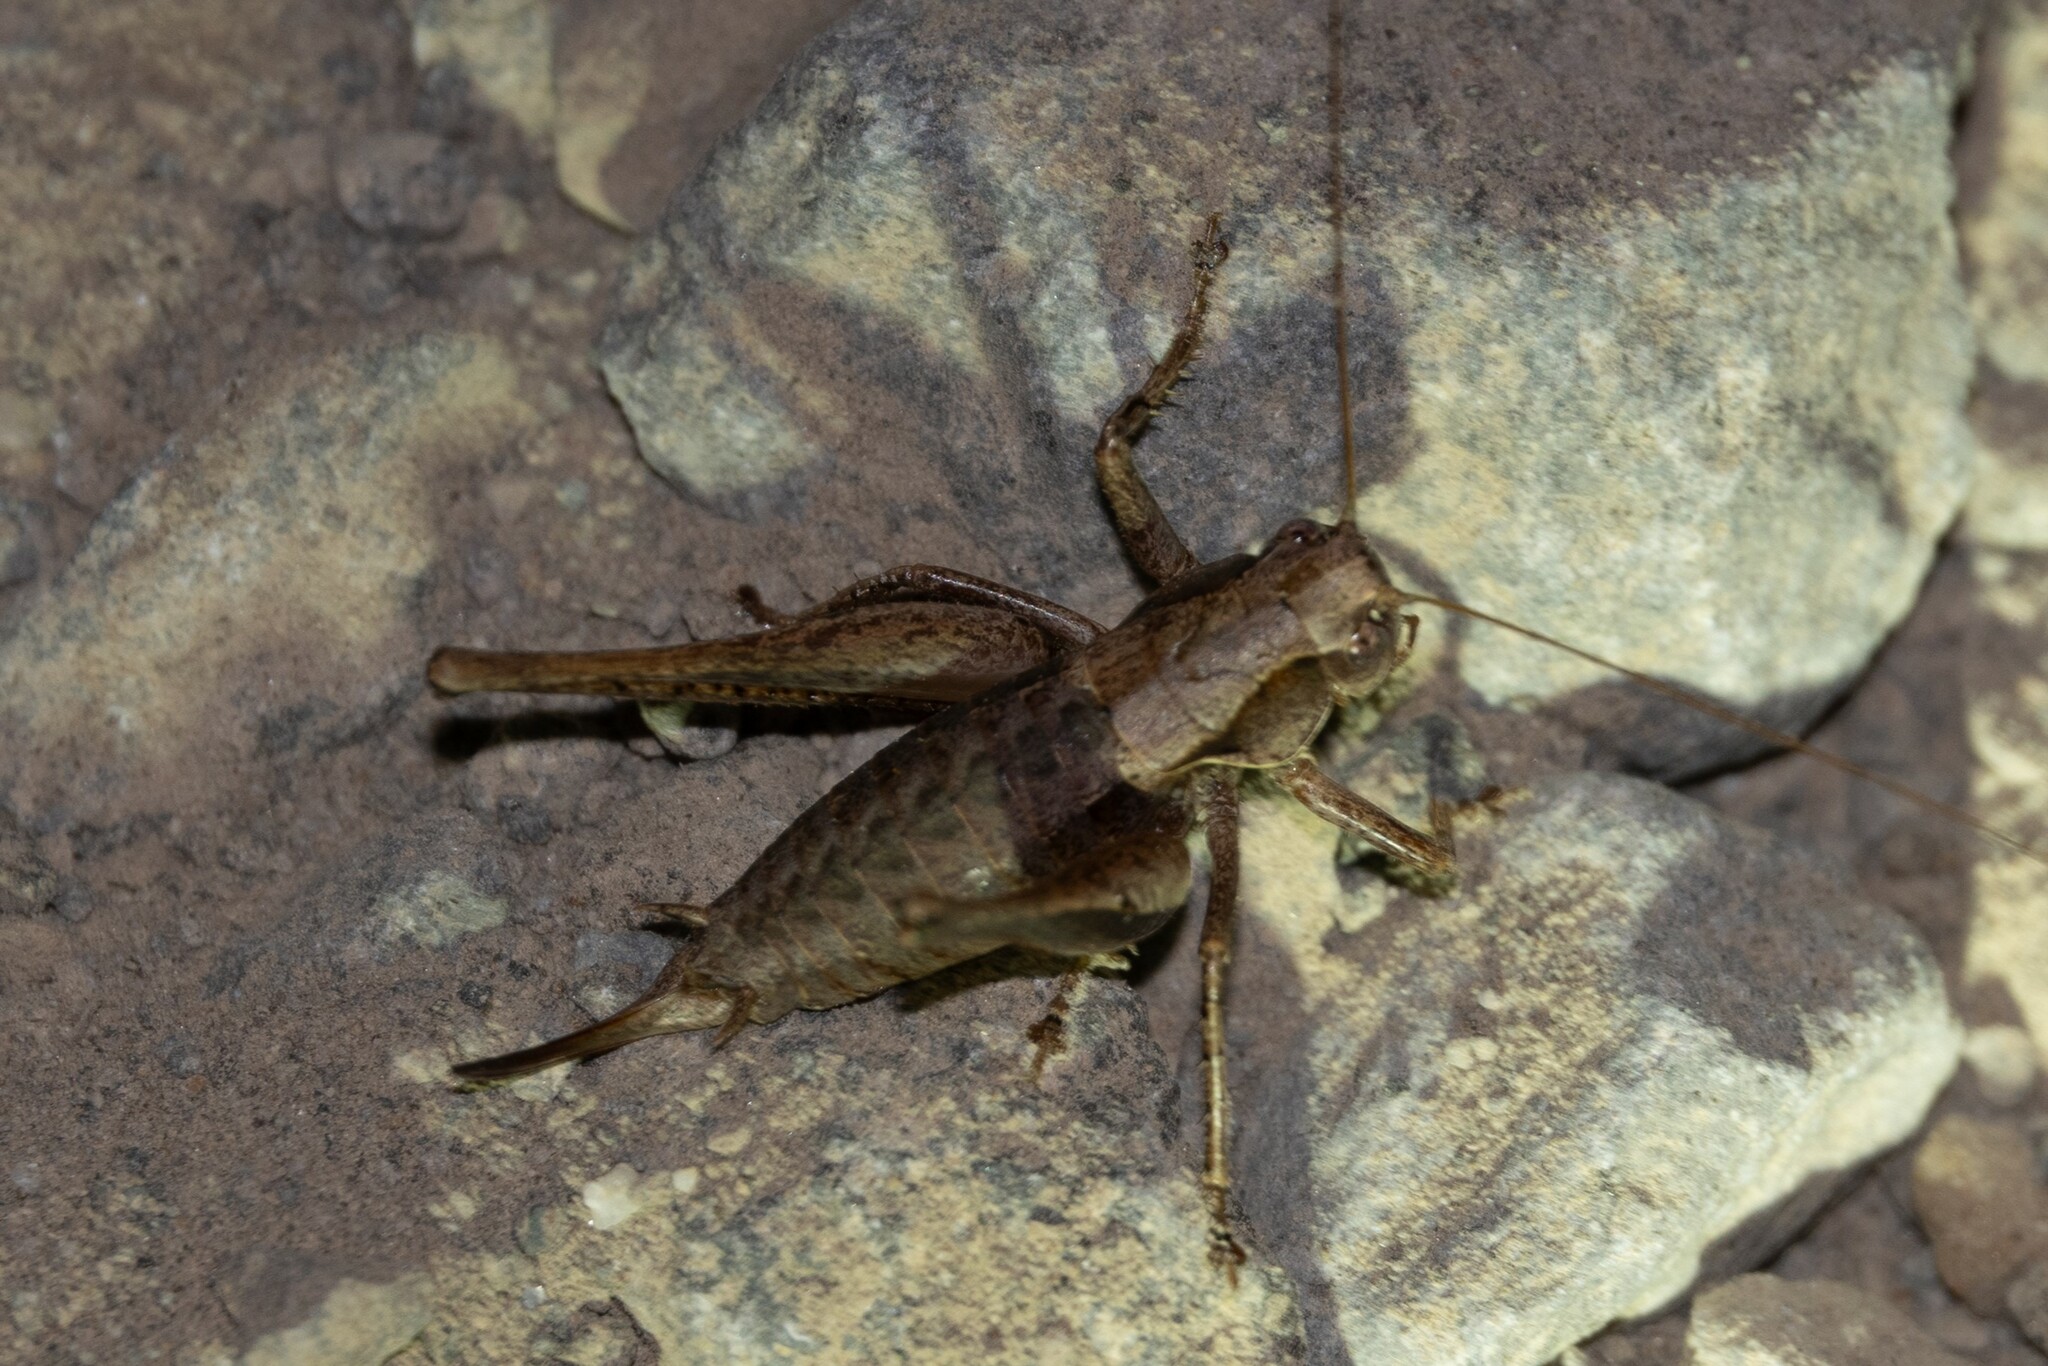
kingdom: Animalia
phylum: Arthropoda
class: Insecta
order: Orthoptera
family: Tettigoniidae
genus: Pholidoptera
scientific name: Pholidoptera griseoaptera
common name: Dark bush-cricket
